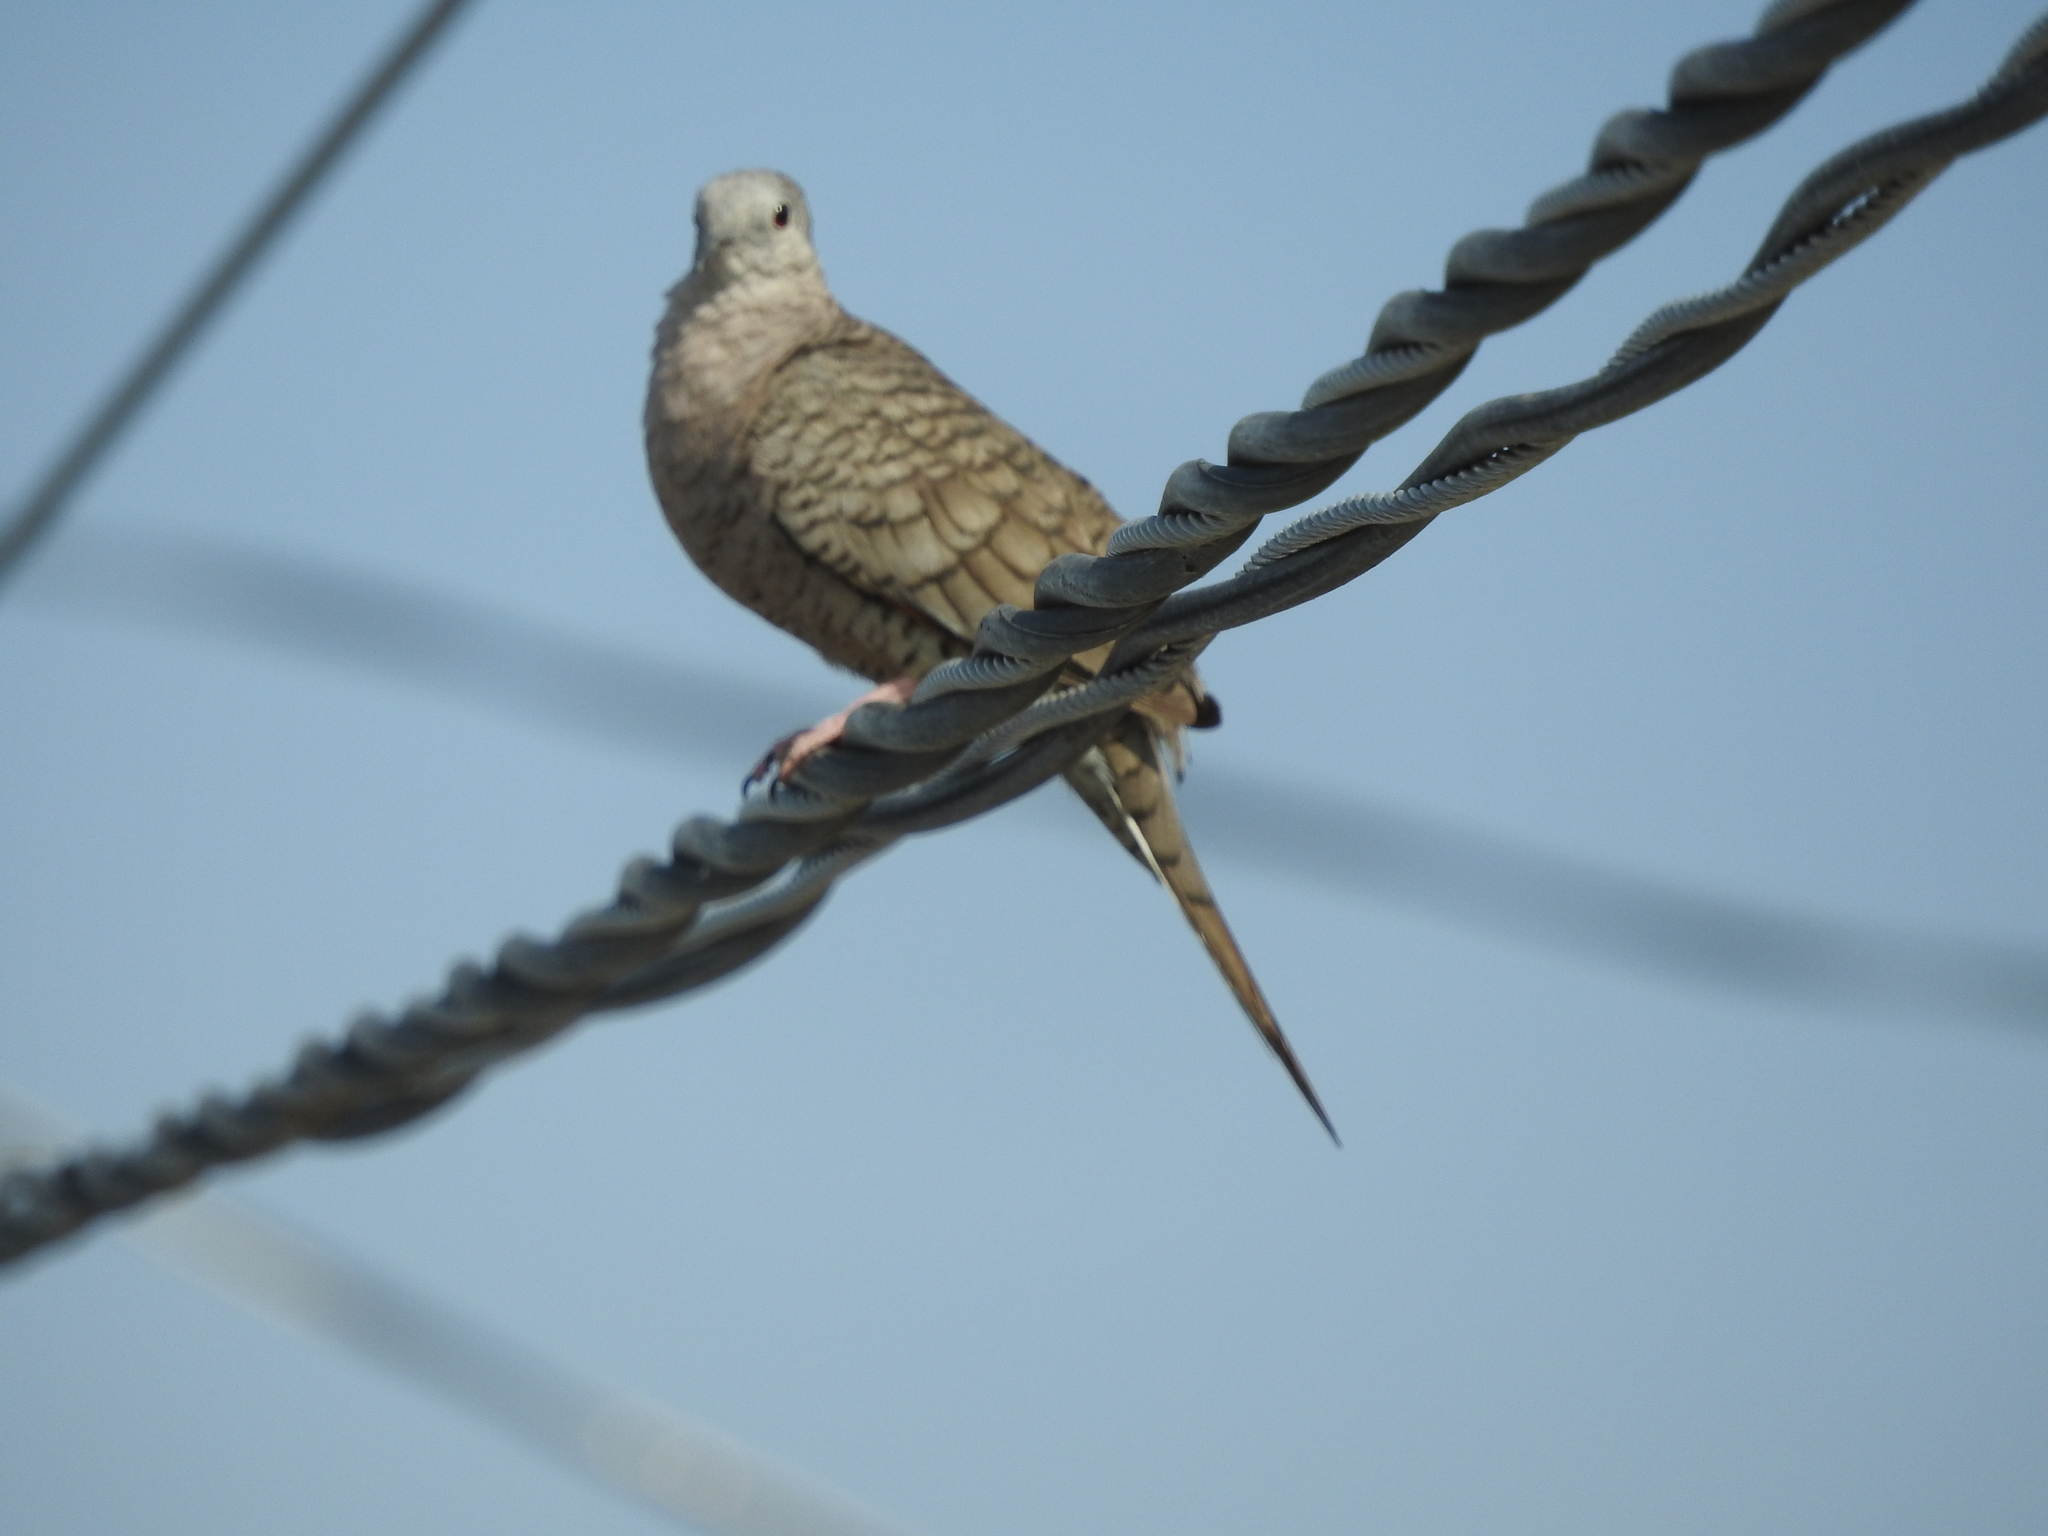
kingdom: Animalia
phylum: Chordata
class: Aves
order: Columbiformes
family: Columbidae
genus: Columbina
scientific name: Columbina inca
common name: Inca dove
